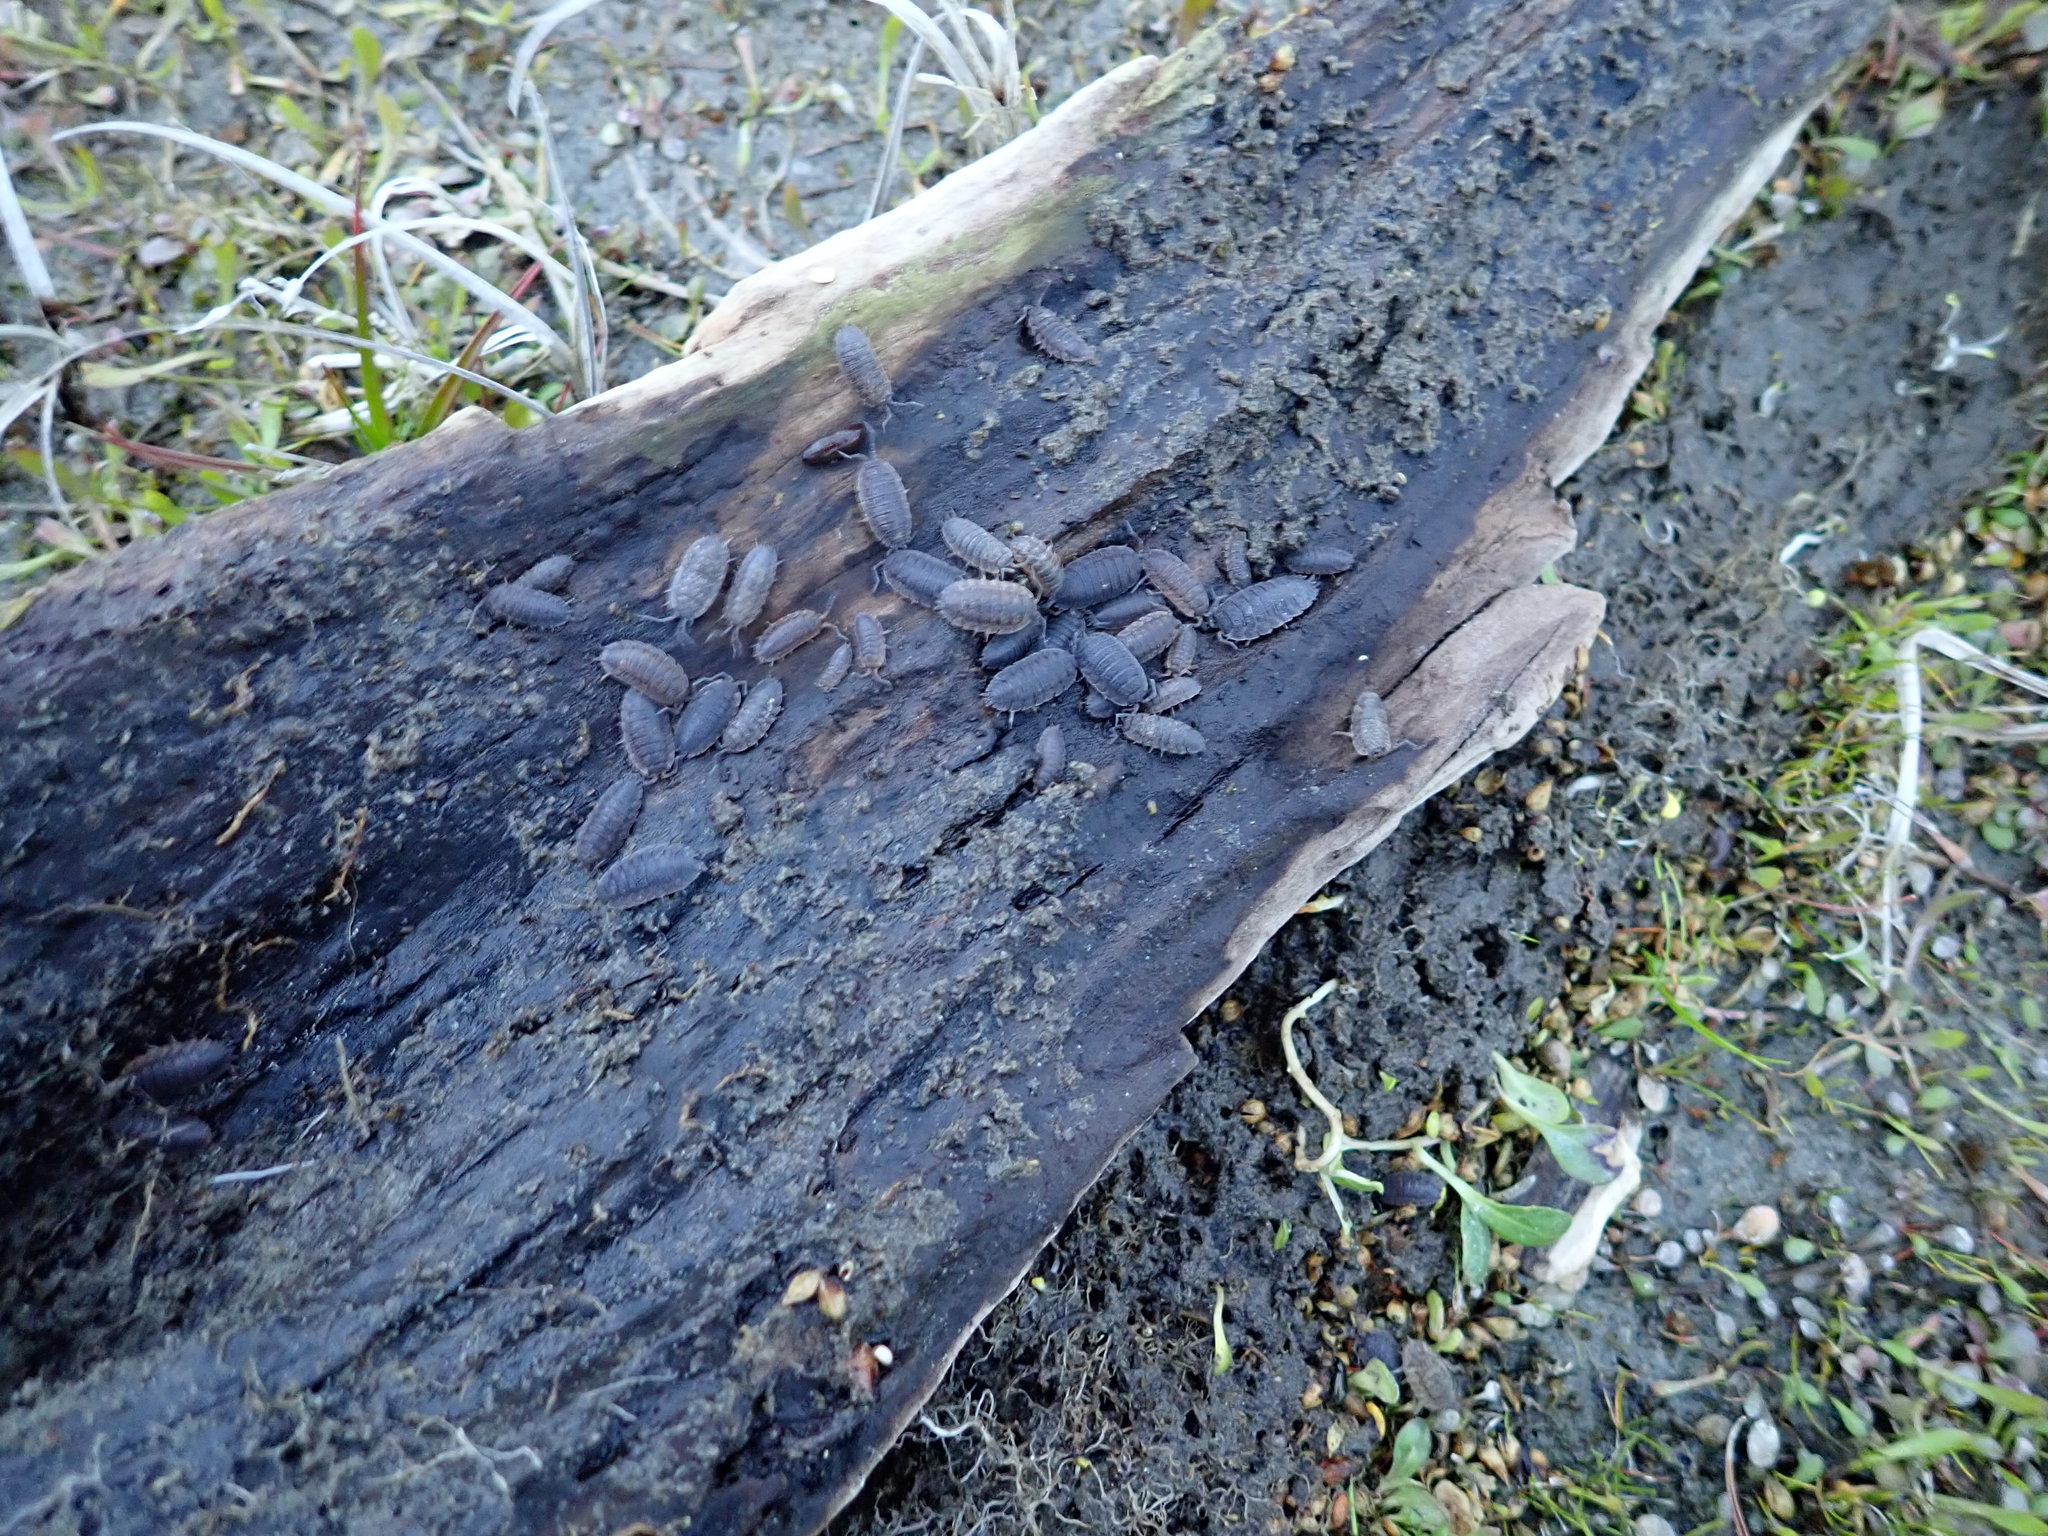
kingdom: Animalia
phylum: Arthropoda
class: Malacostraca
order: Isopoda
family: Porcellionidae
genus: Porcellio
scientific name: Porcellio scaber
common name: Common rough woodlouse
